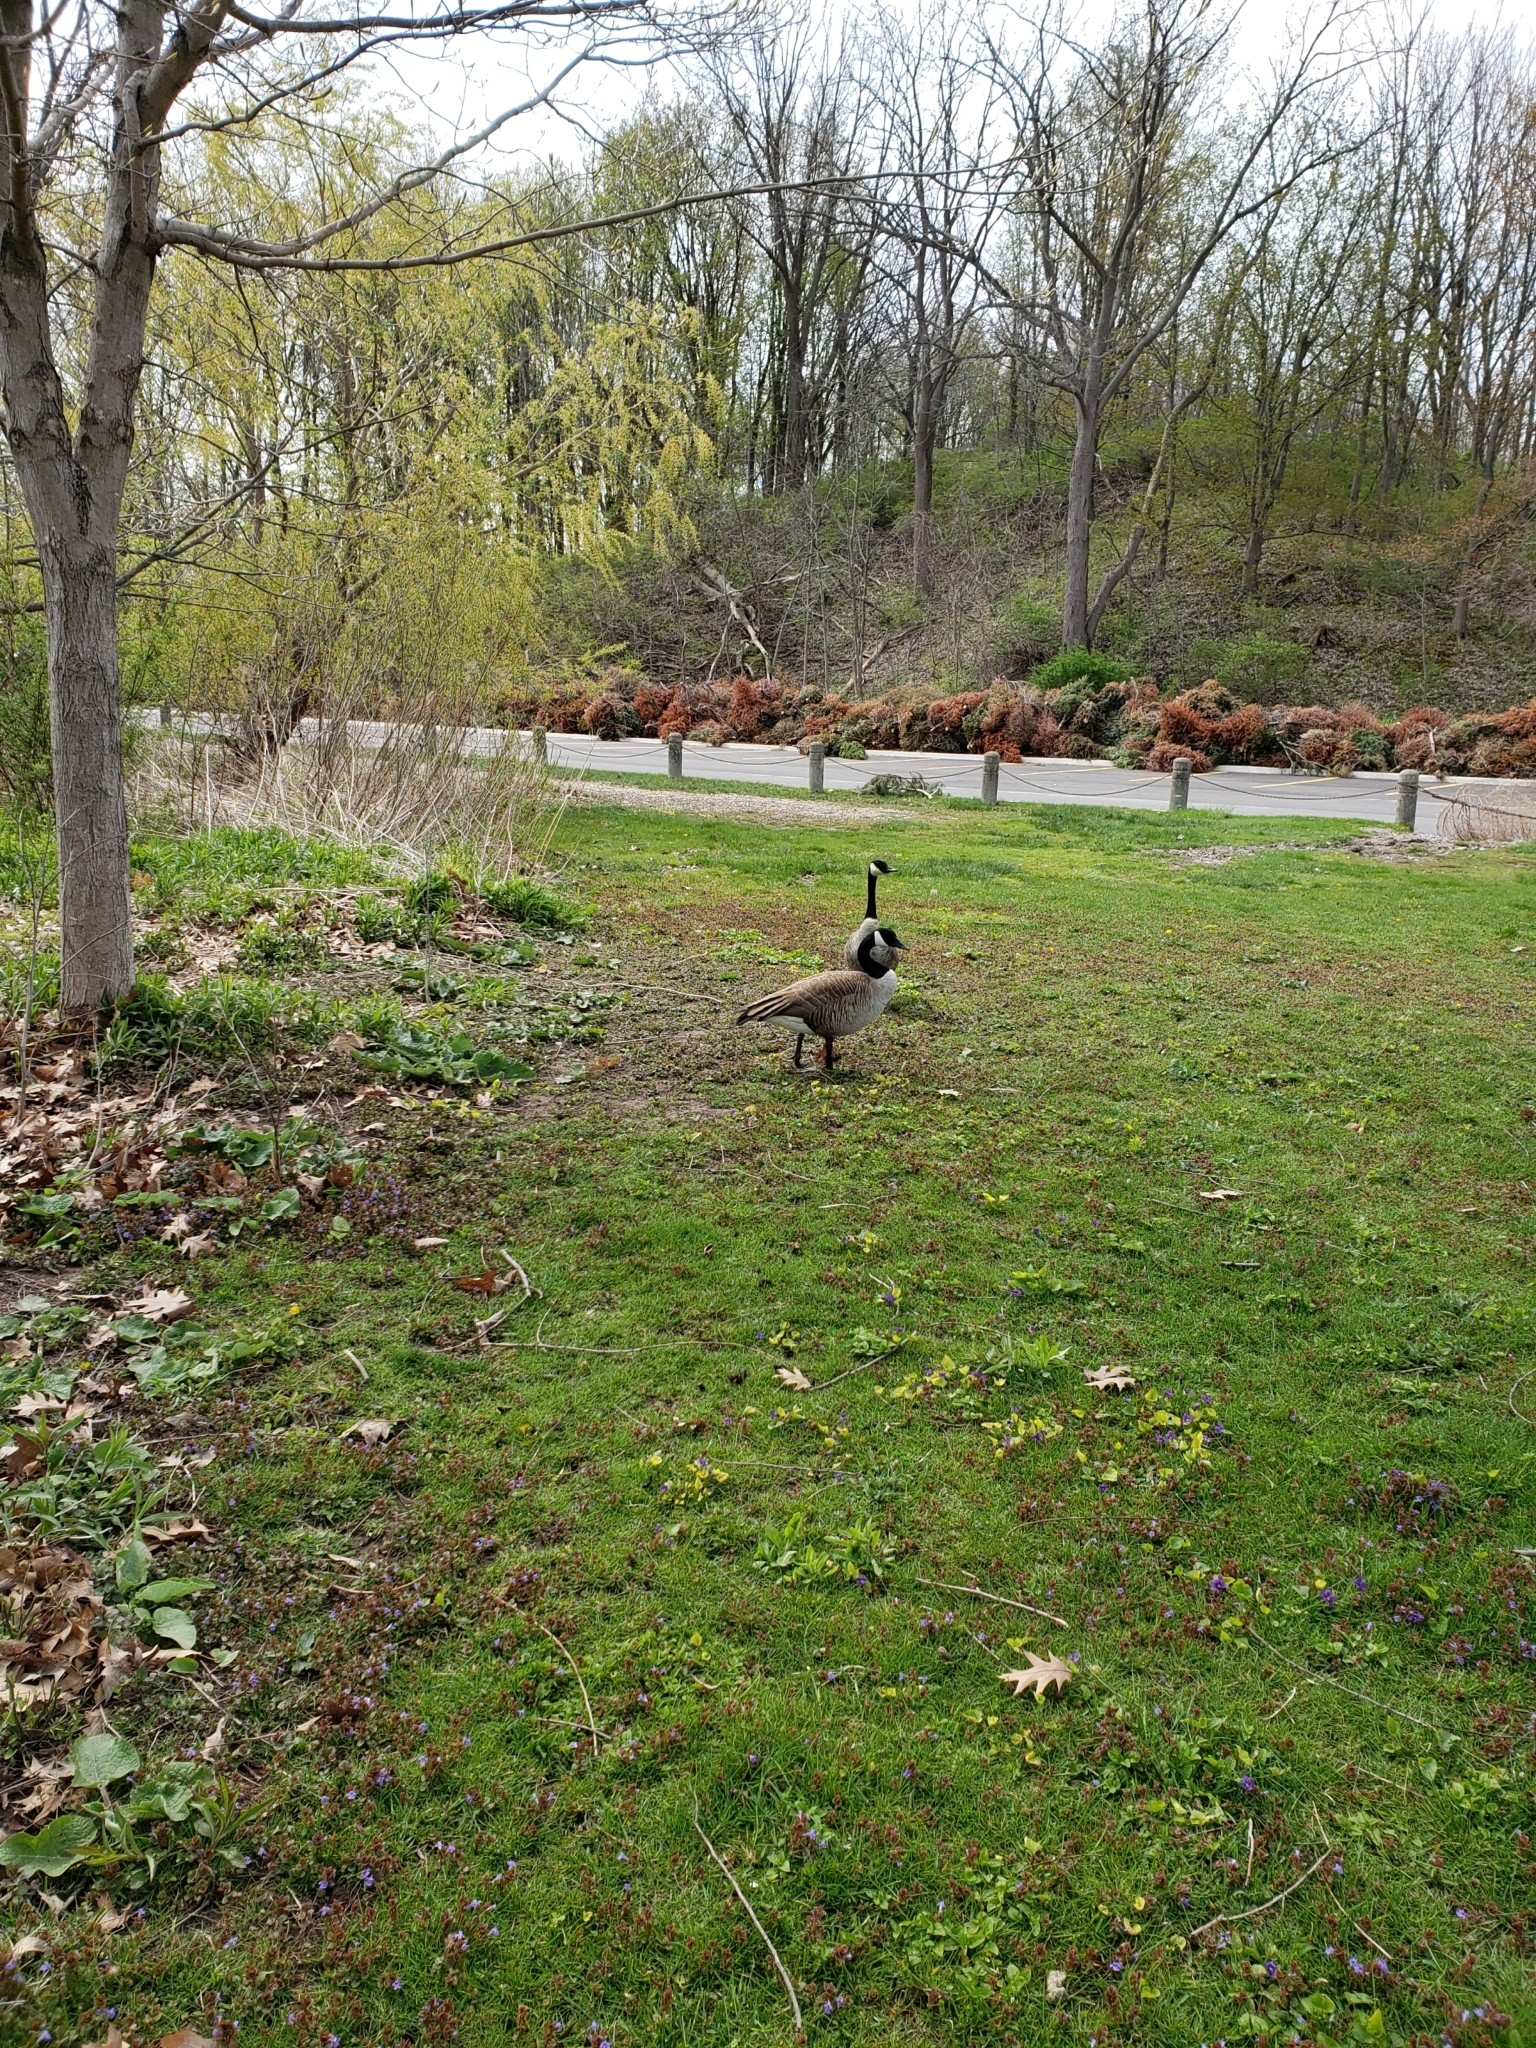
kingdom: Animalia
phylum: Chordata
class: Aves
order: Anseriformes
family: Anatidae
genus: Branta
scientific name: Branta canadensis
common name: Canada goose
